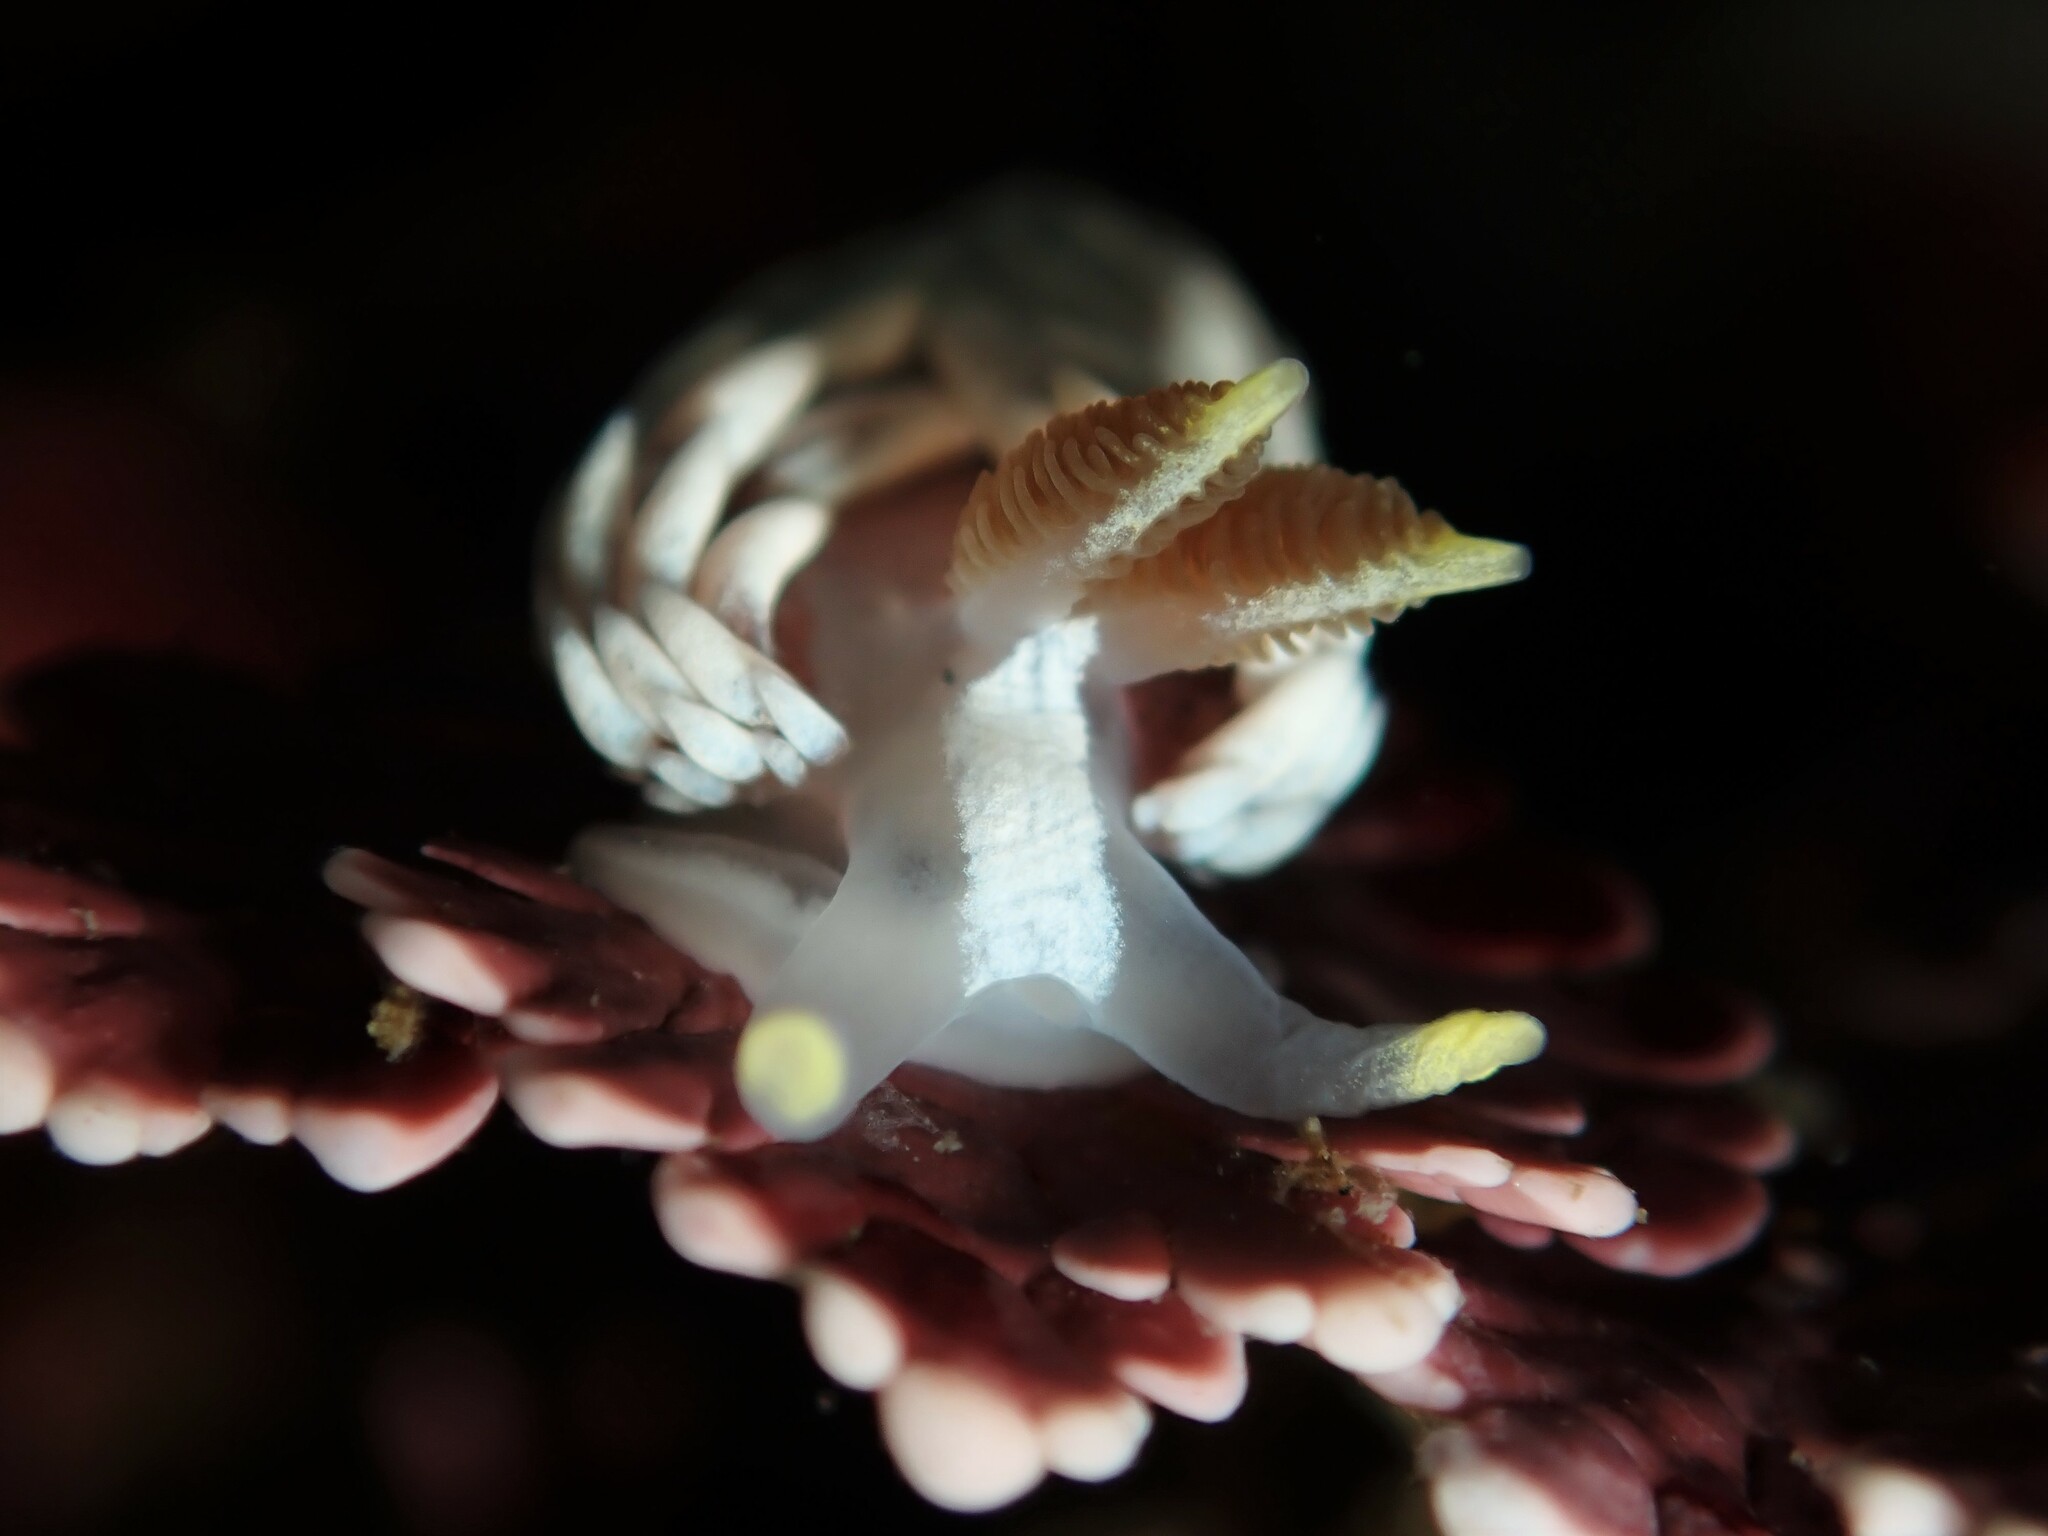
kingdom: Animalia
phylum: Mollusca
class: Gastropoda
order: Nudibranchia
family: Babakinidae
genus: Babakina
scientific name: Babakina caprinsulensis
